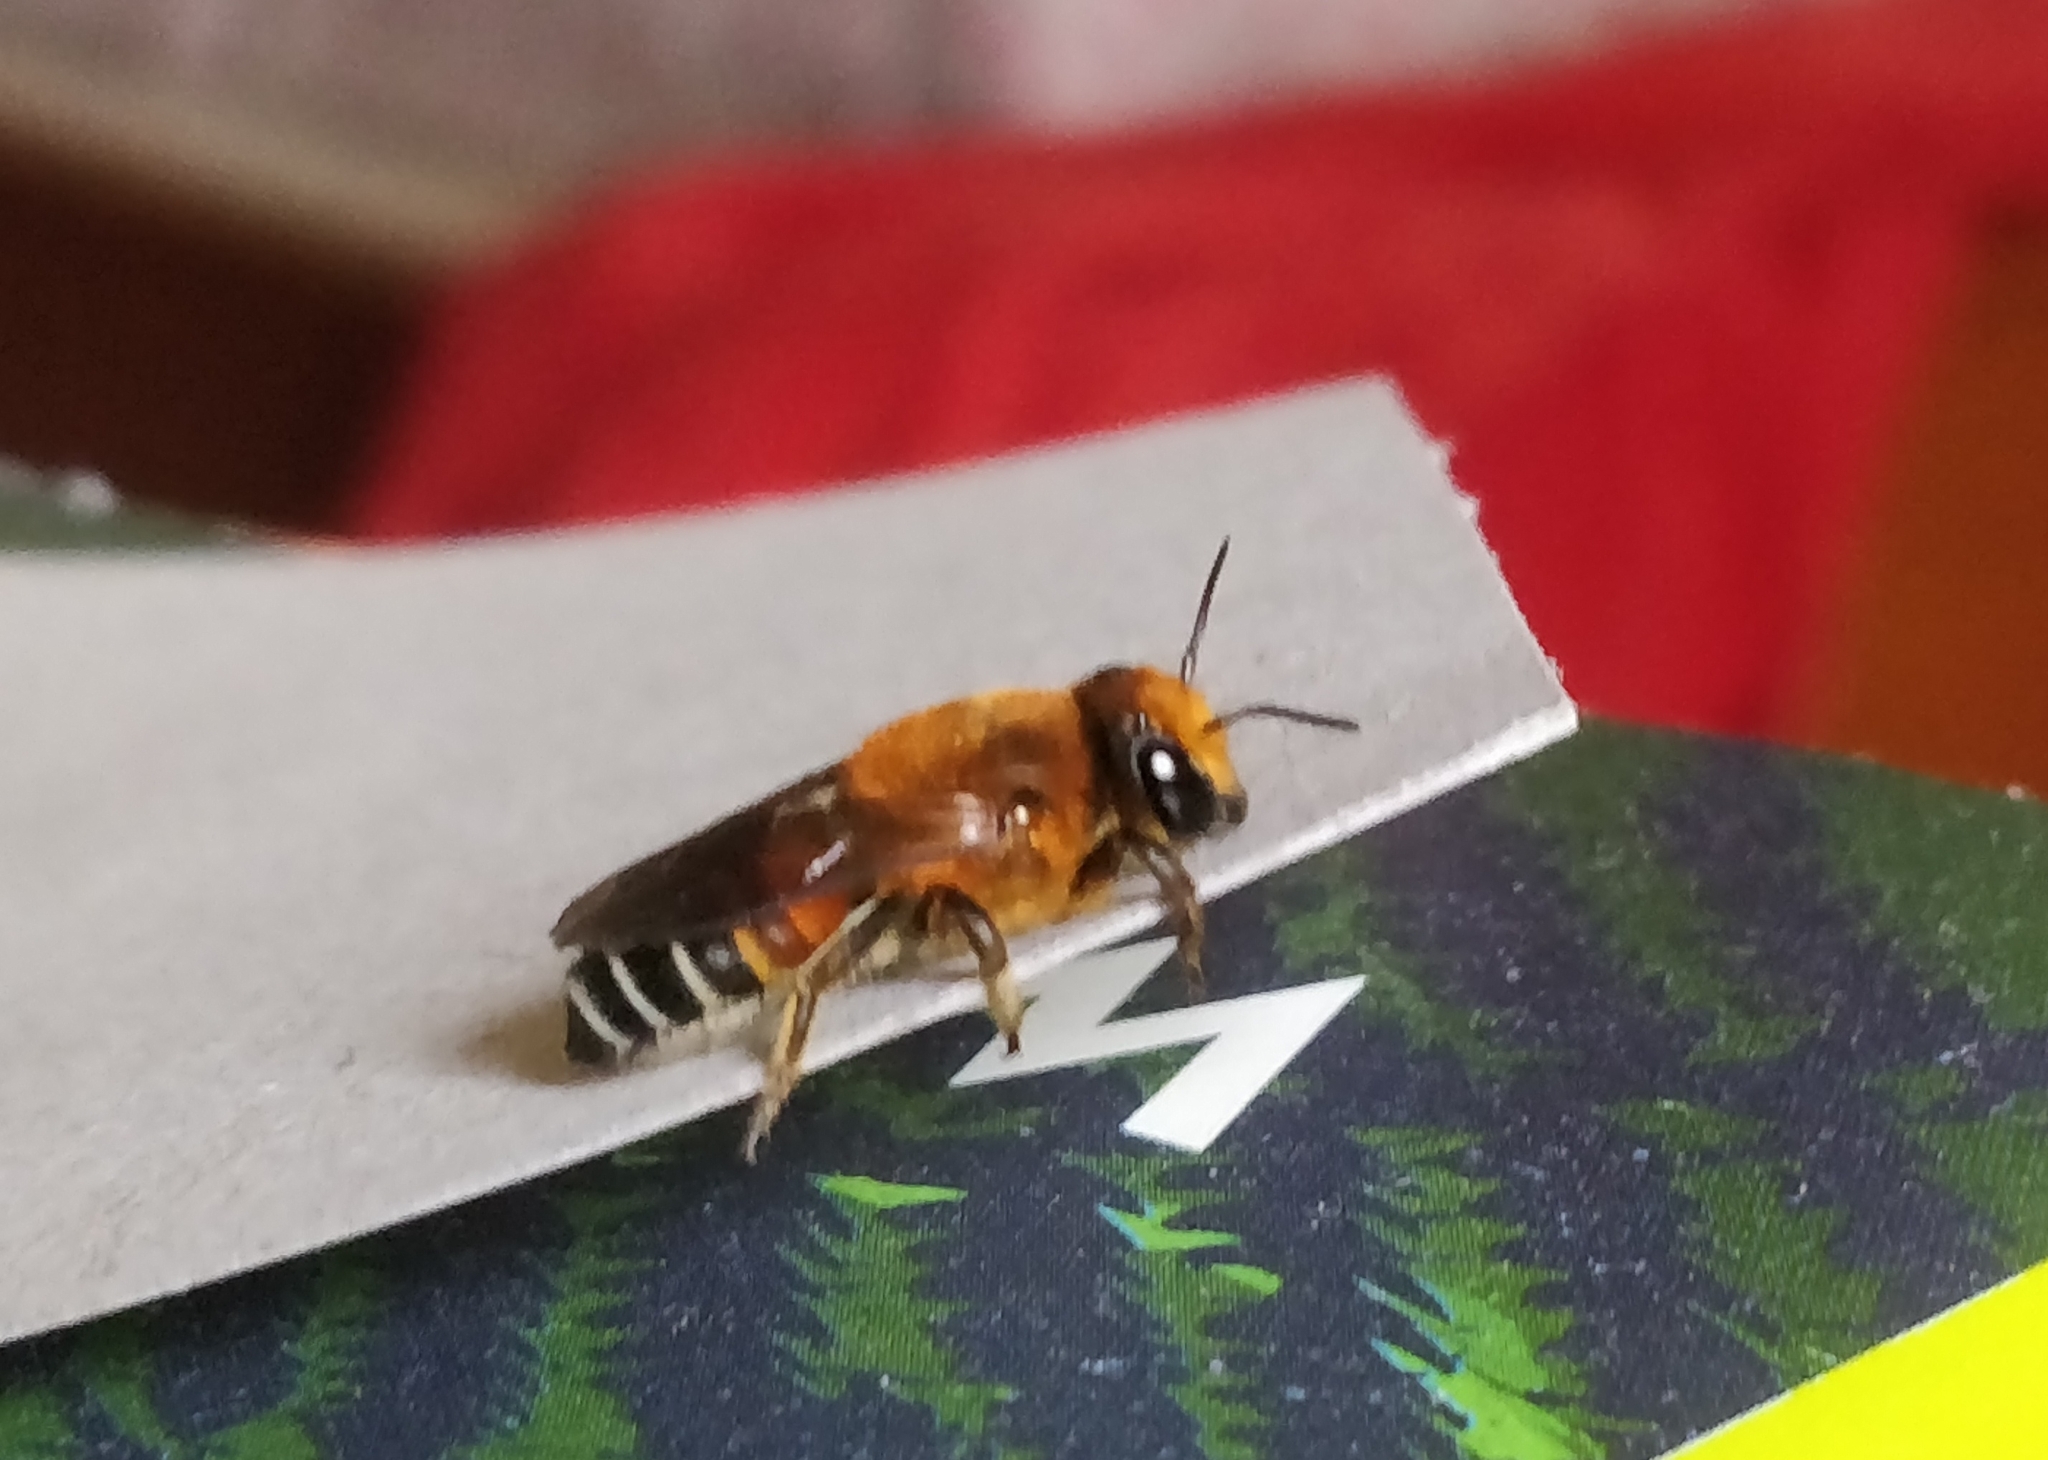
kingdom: Animalia
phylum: Arthropoda
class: Insecta
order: Hymenoptera
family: Megachilidae
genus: Megachile
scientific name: Megachile lanata
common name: Wooly wall bee
